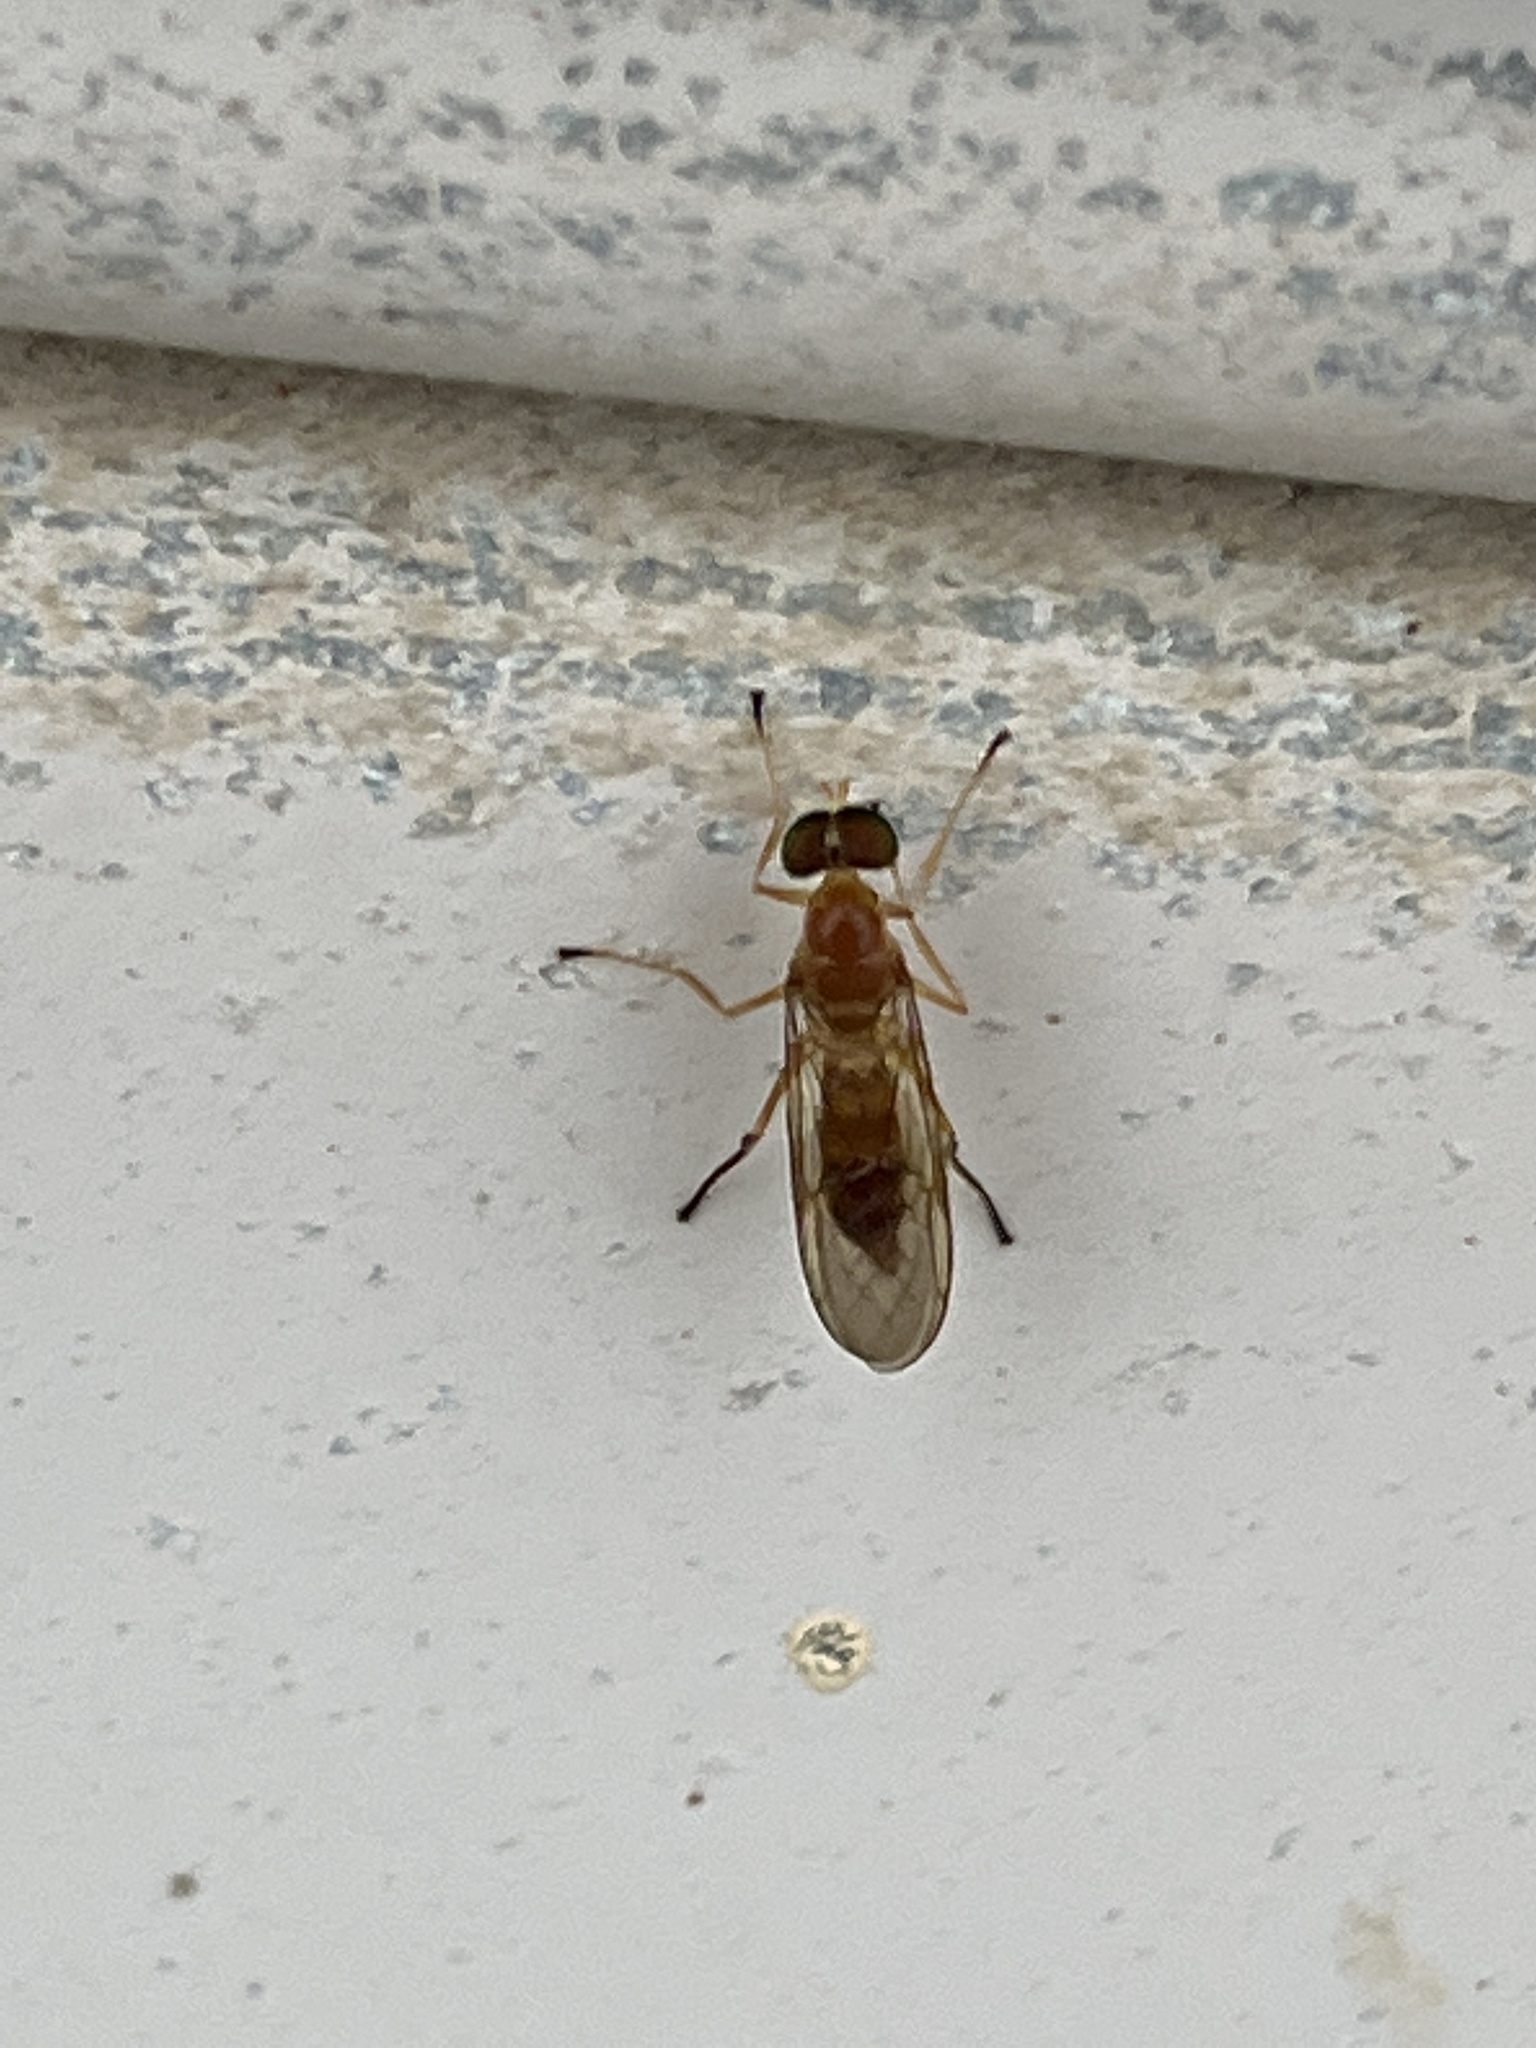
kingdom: Animalia
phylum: Arthropoda
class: Insecta
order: Diptera
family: Stratiomyidae
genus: Ptecticus
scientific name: Ptecticus trivittatus
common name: Compost fly
